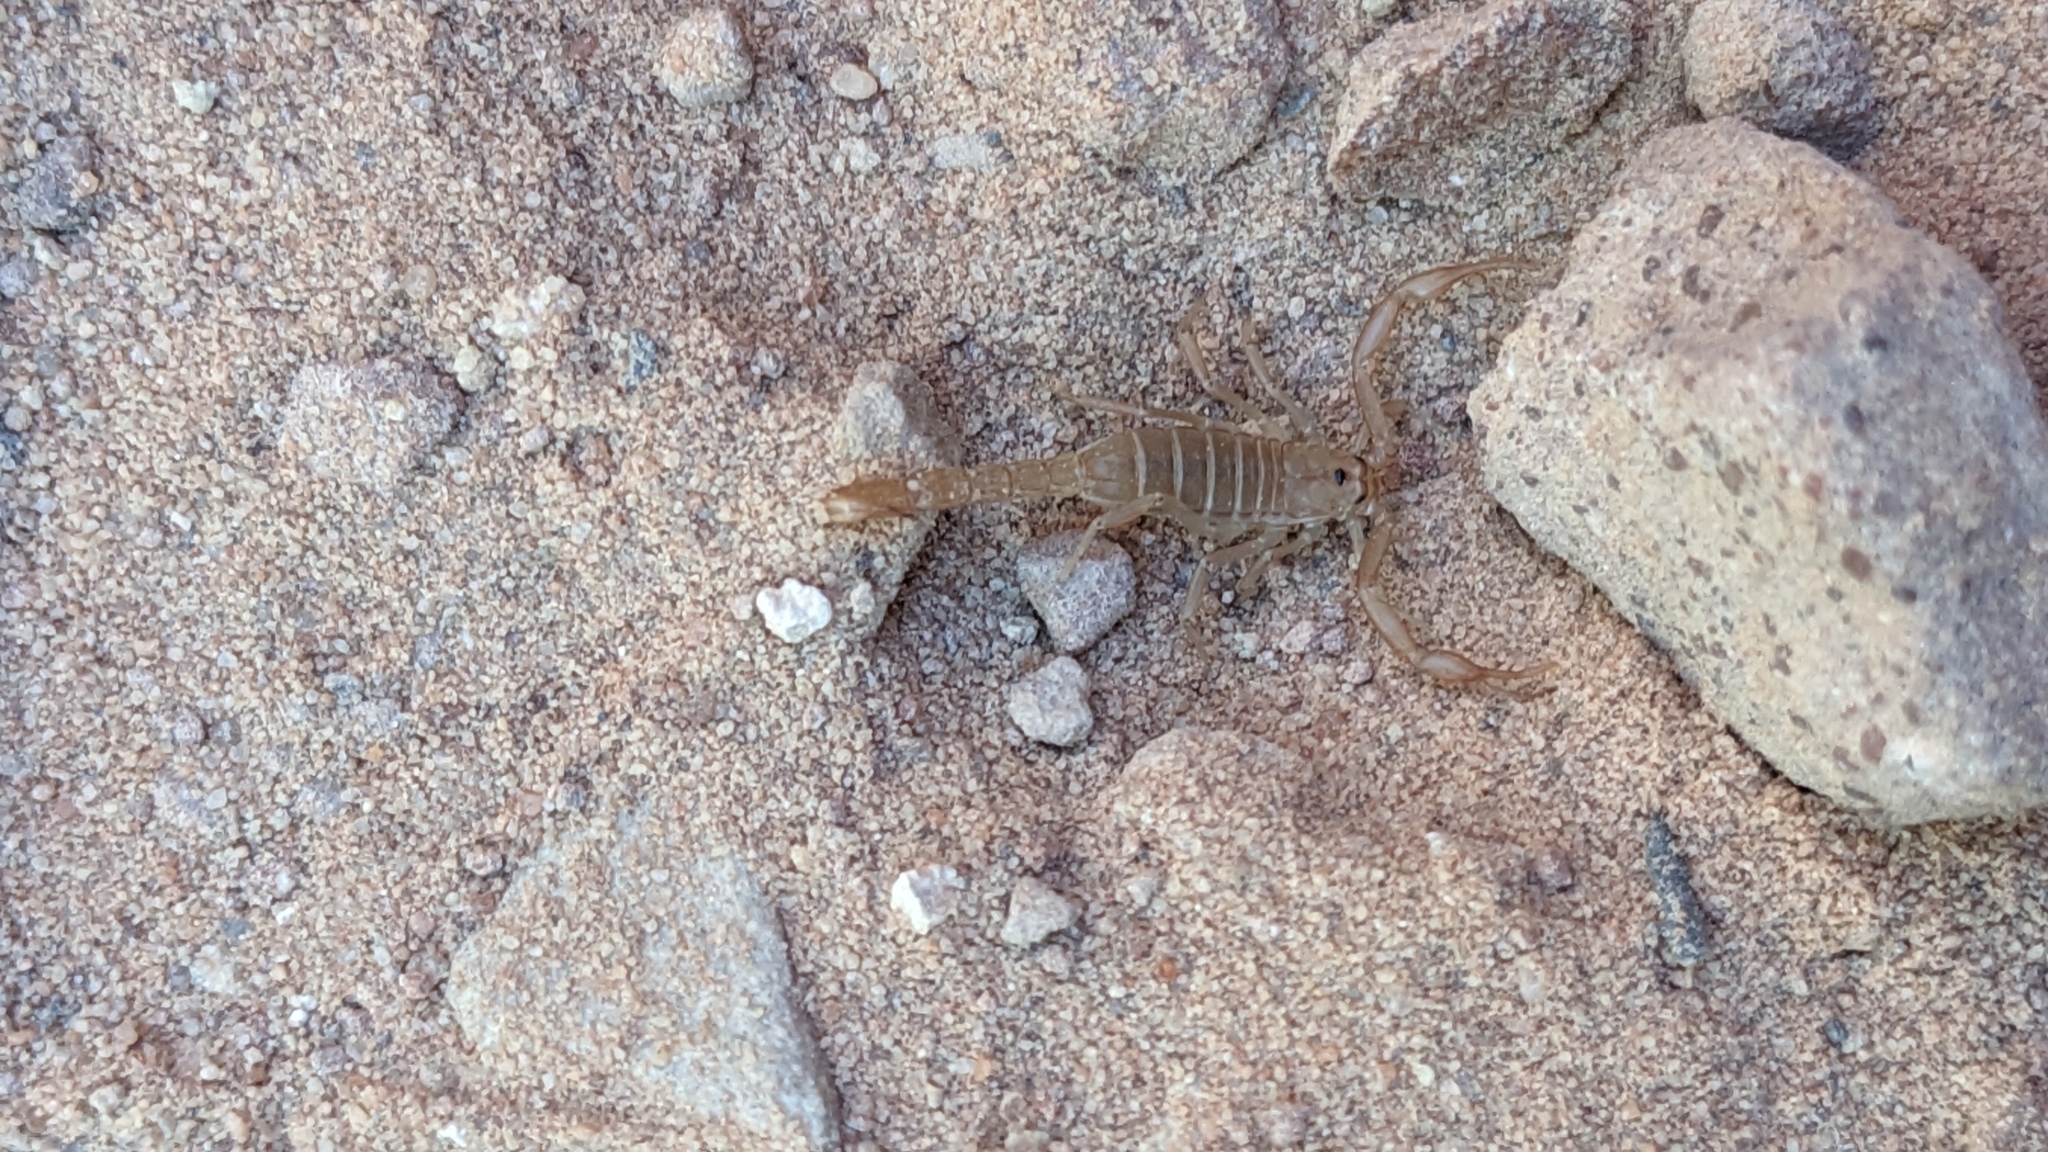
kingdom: Animalia
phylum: Arthropoda
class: Arachnida
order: Scorpiones
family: Vaejovidae
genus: Serradigitus
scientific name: Serradigitus wupatkiensis
